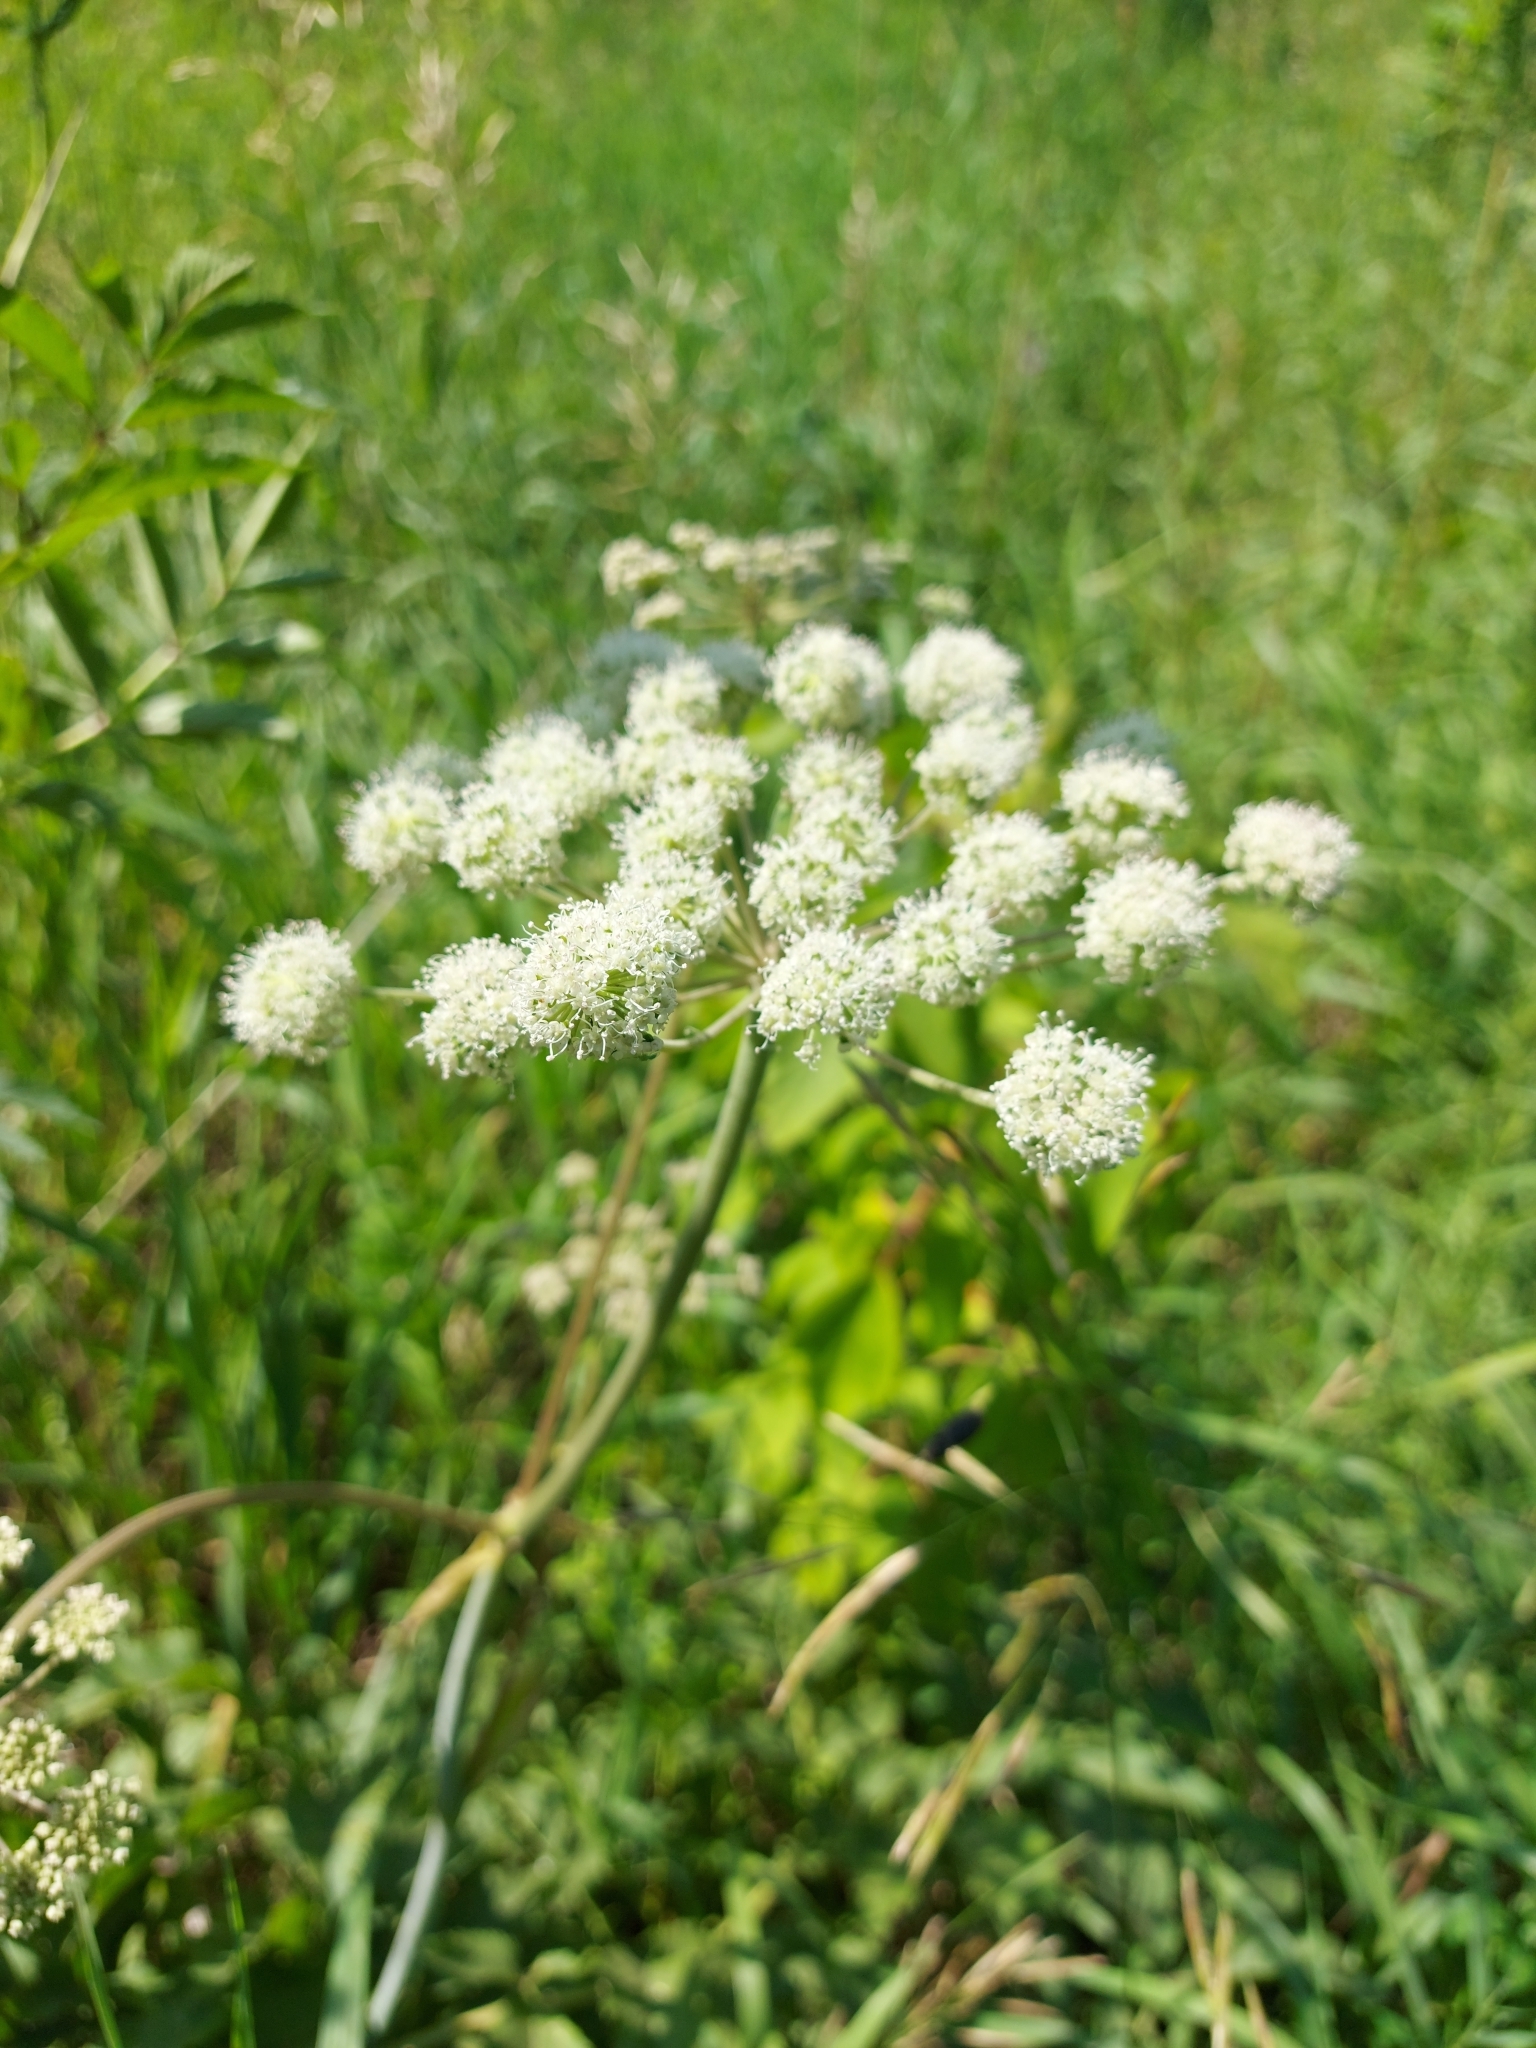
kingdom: Plantae
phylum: Tracheophyta
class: Magnoliopsida
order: Apiales
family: Apiaceae
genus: Seseli
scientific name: Seseli libanotis
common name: Mooncarrot
